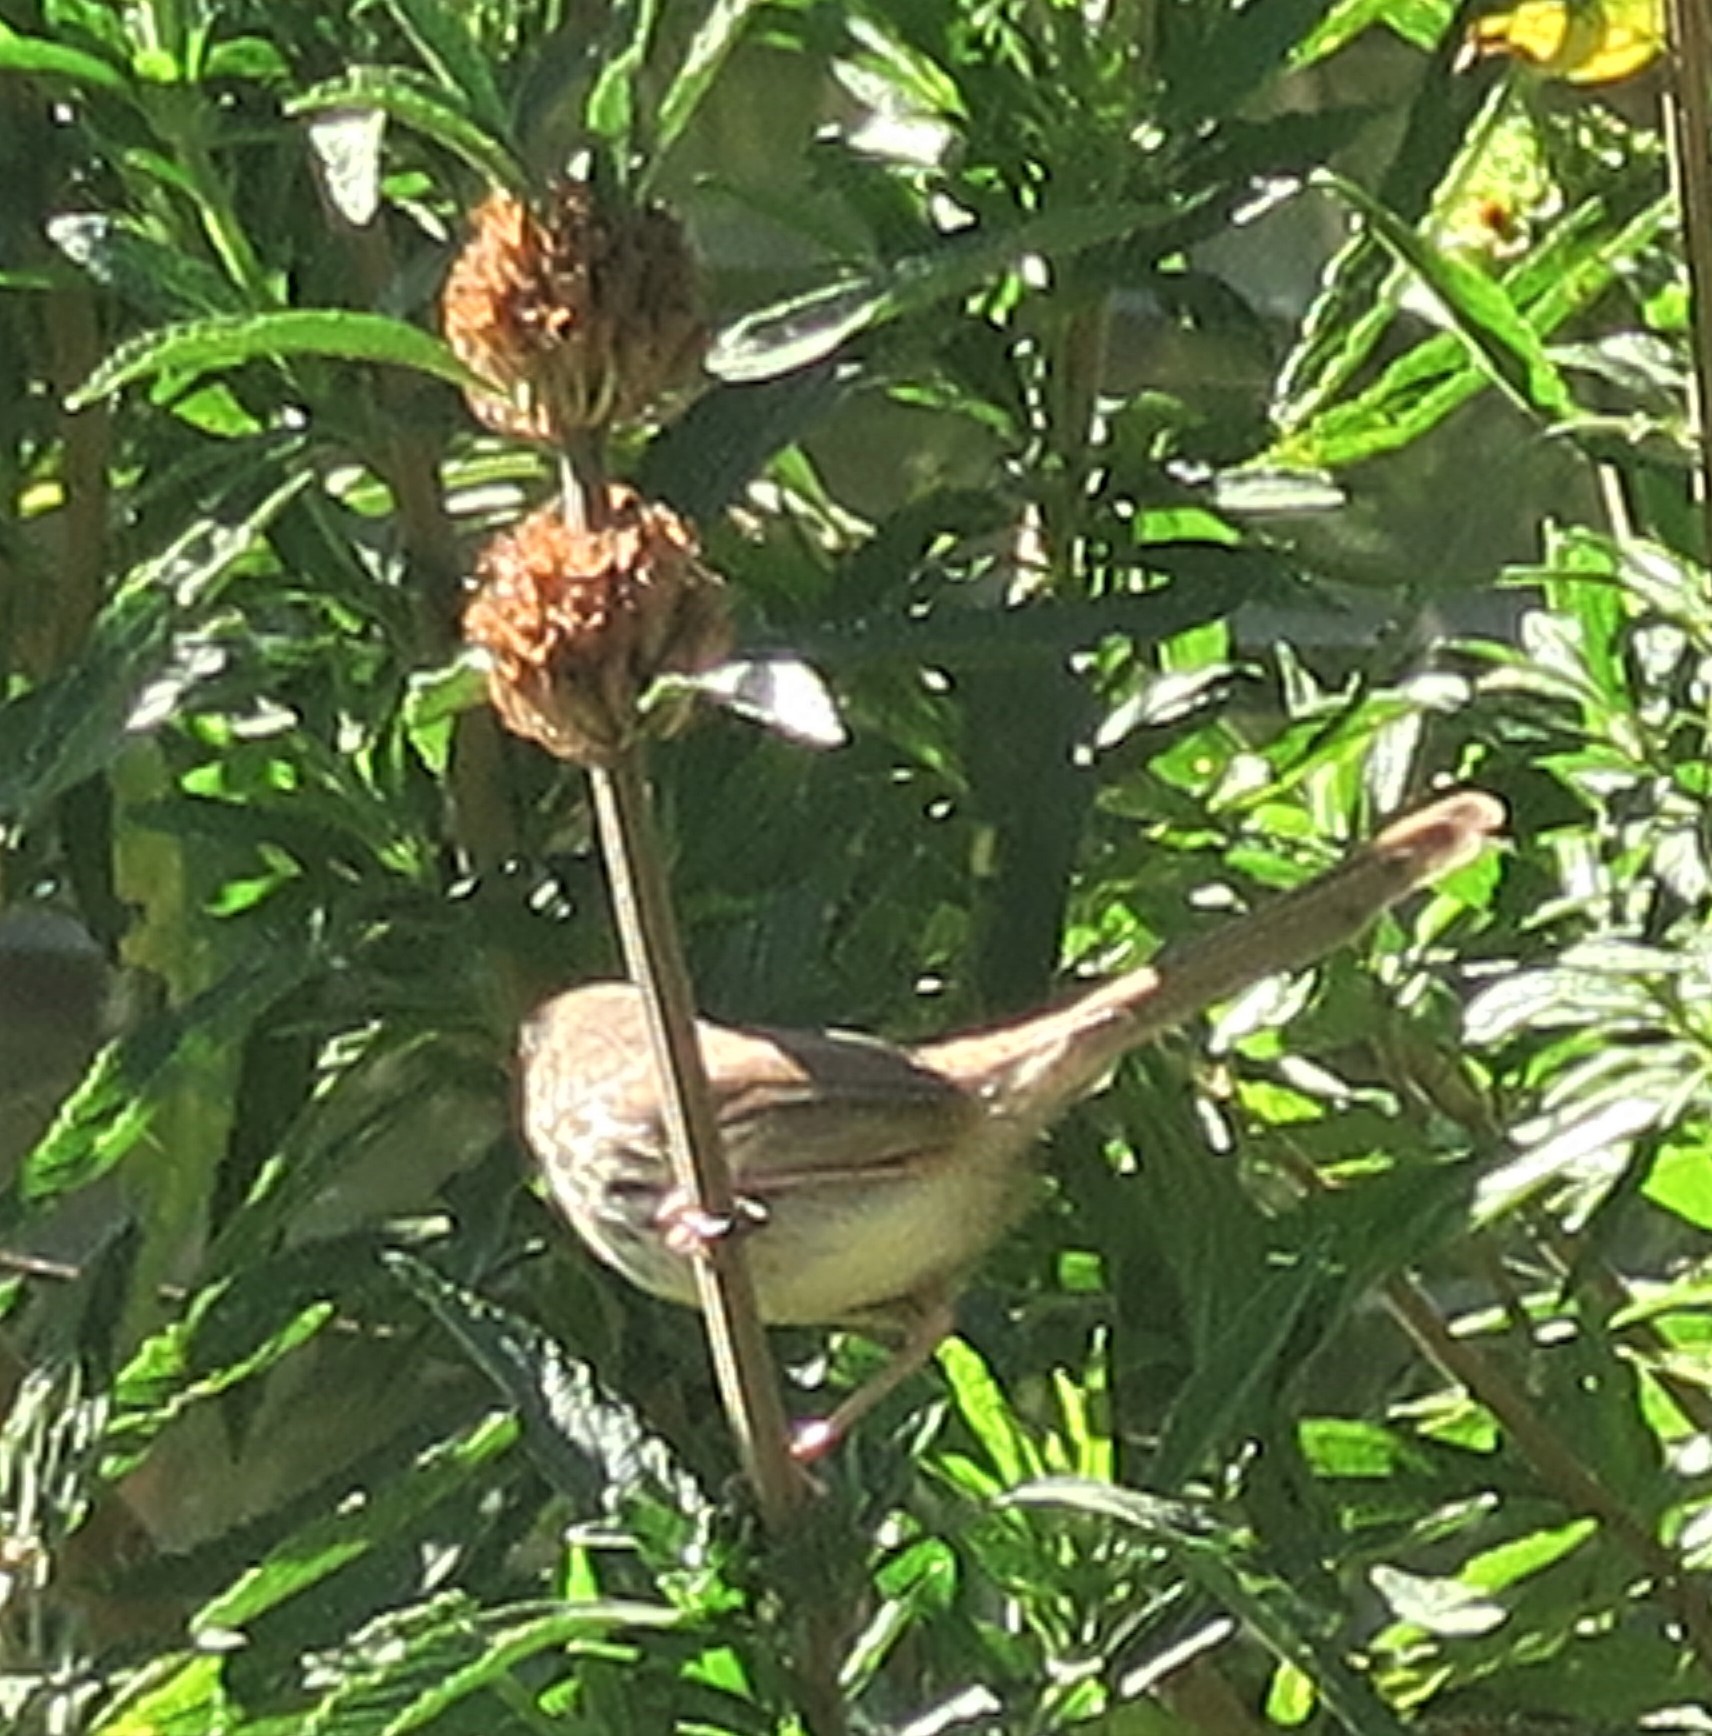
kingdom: Animalia
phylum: Chordata
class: Aves
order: Passeriformes
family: Cisticolidae
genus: Prinia
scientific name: Prinia maculosa
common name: Karoo prinia
